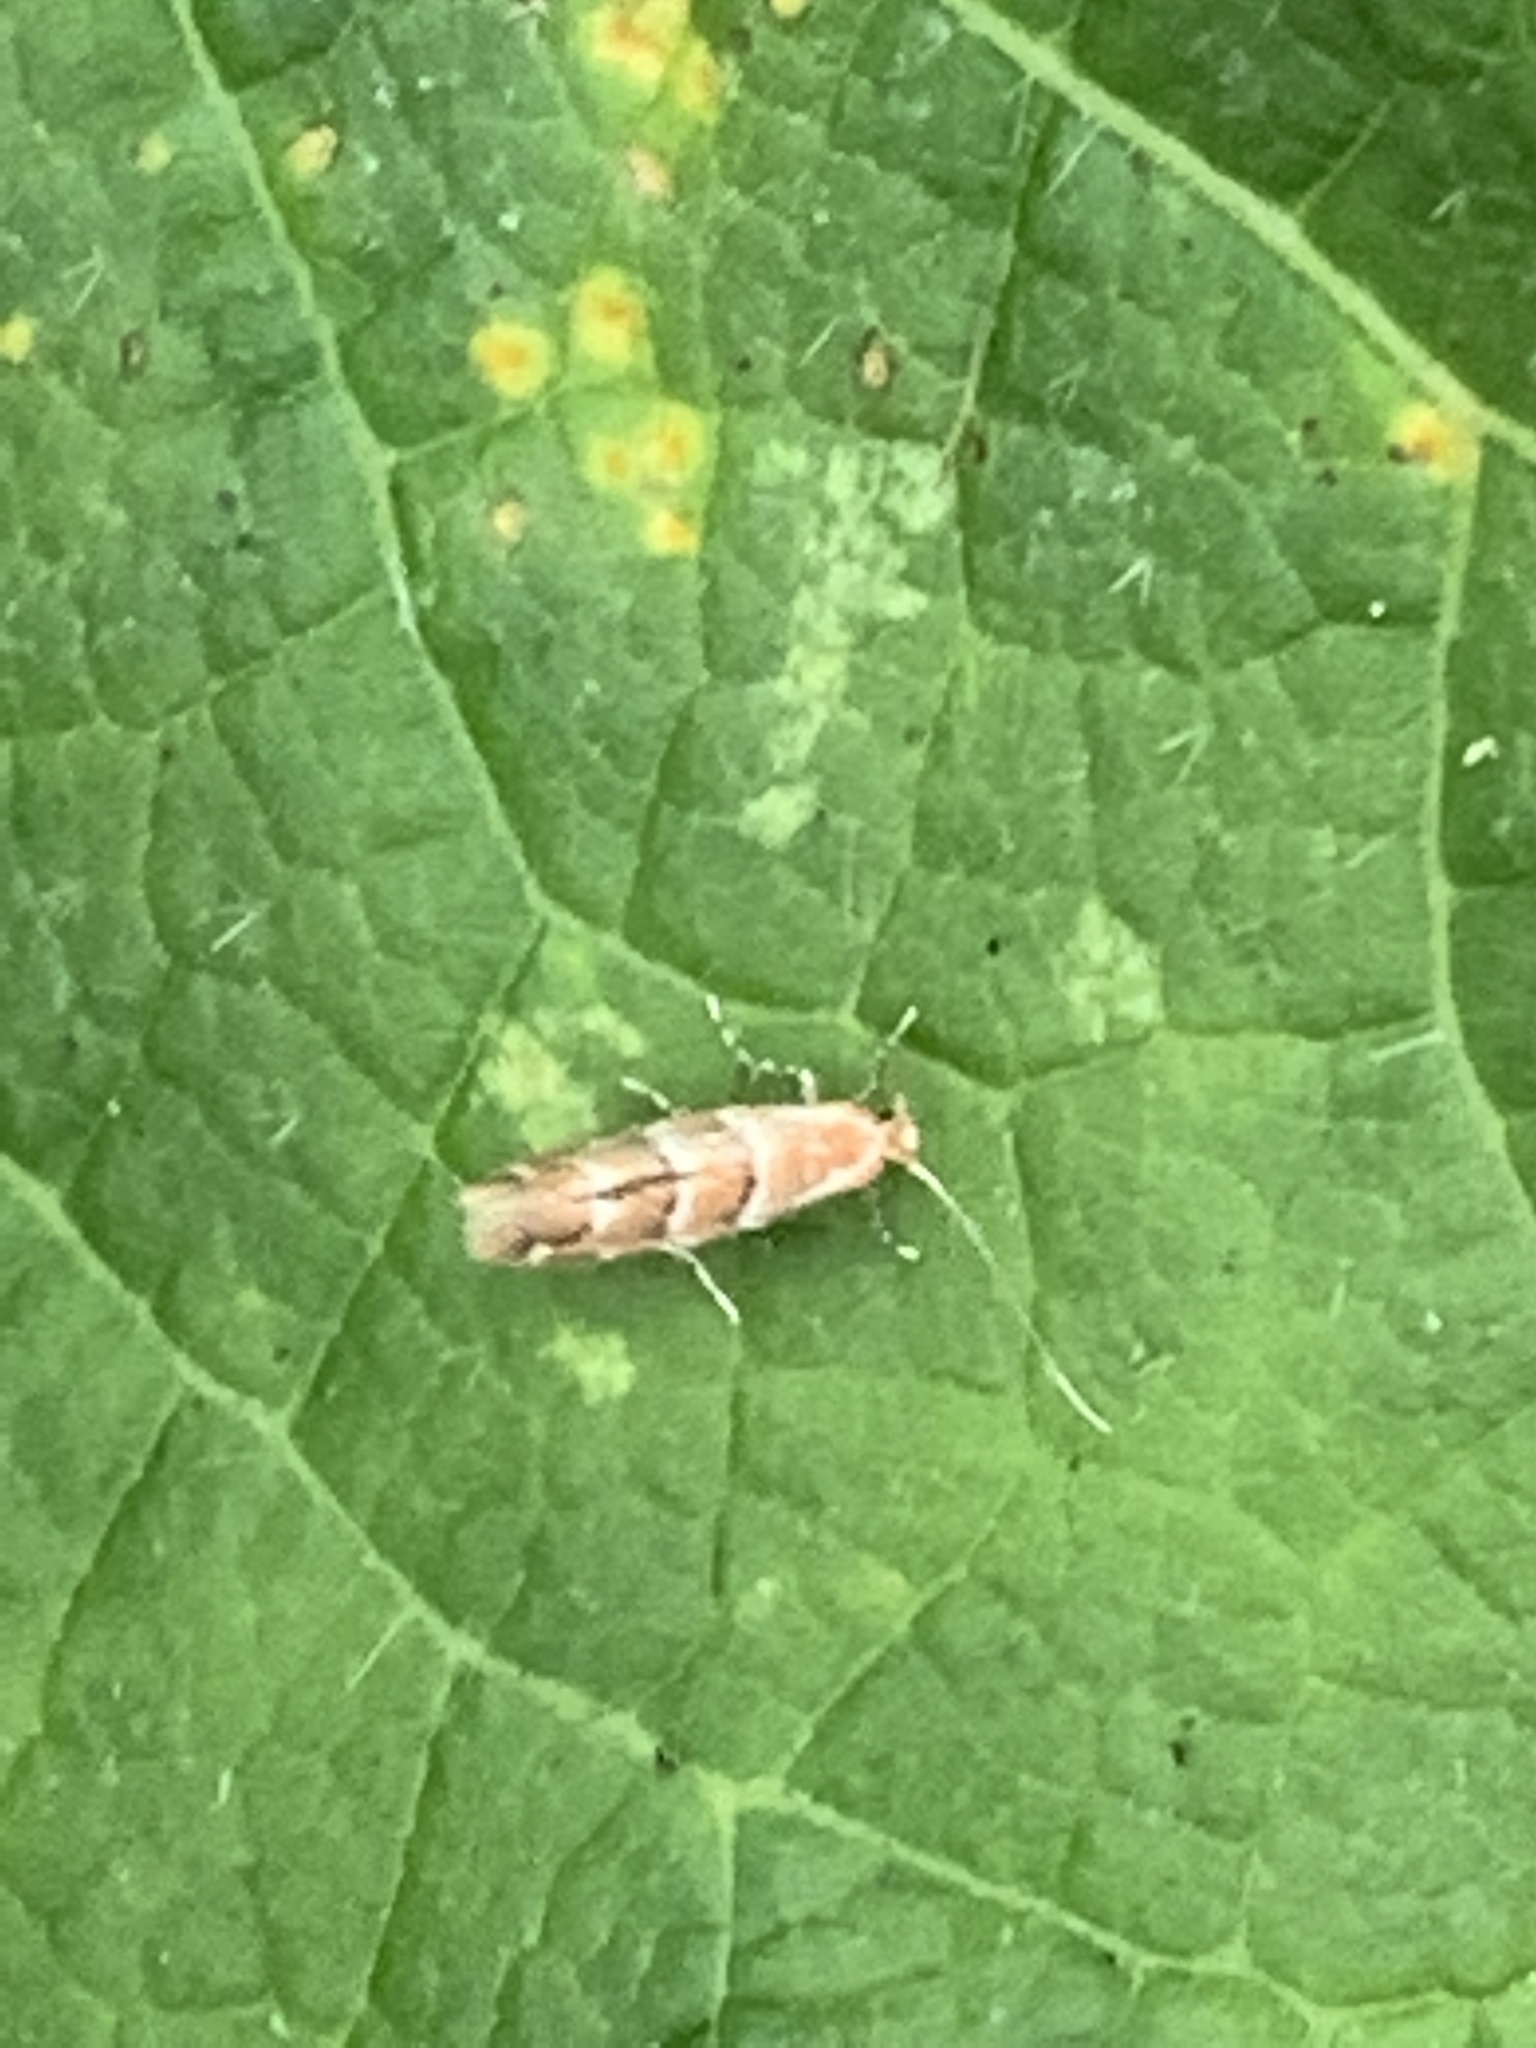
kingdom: Animalia
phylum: Arthropoda
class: Insecta
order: Lepidoptera
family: Gracillariidae
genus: Cameraria
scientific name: Cameraria ohridella
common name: Horse-chestnut leaf-miner
